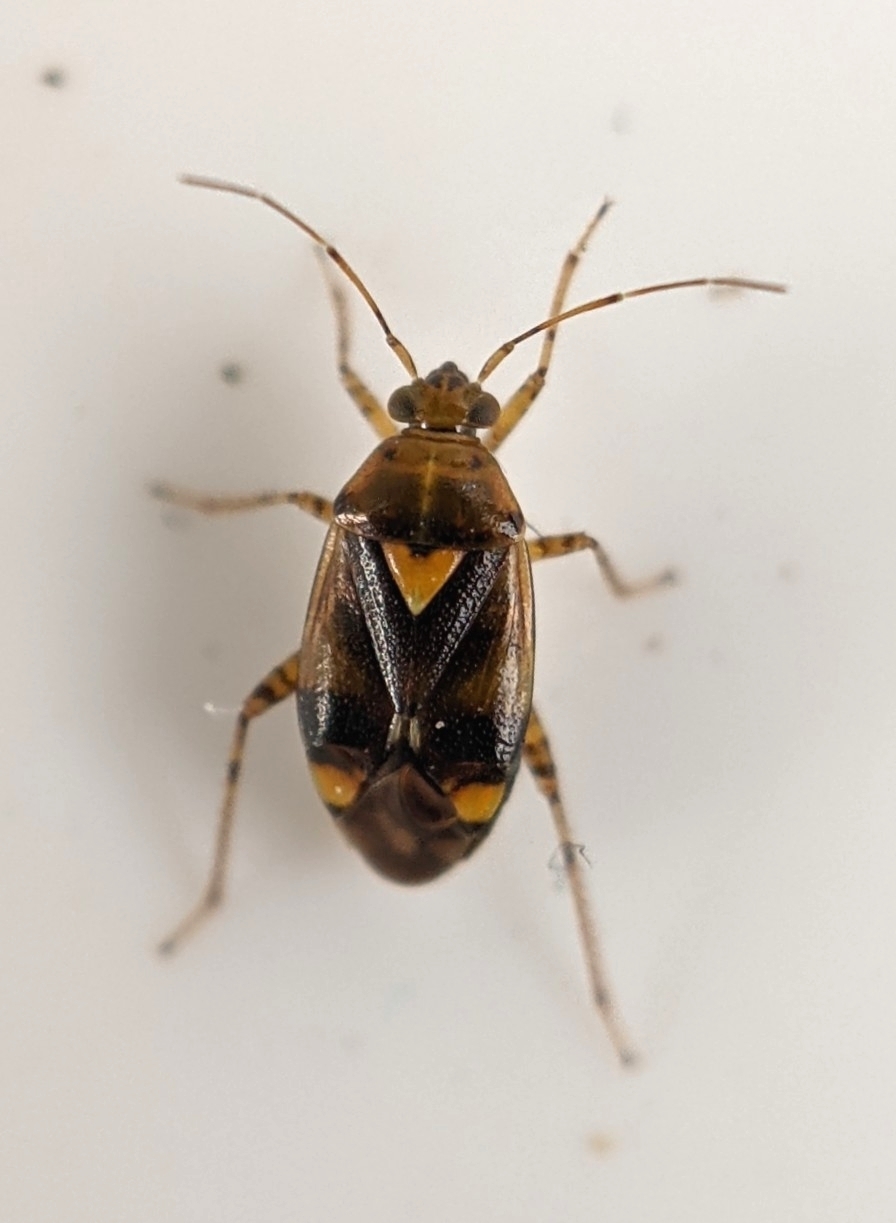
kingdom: Animalia
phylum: Arthropoda
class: Insecta
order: Hemiptera
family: Miridae
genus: Liocoris
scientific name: Liocoris tripustulatus
